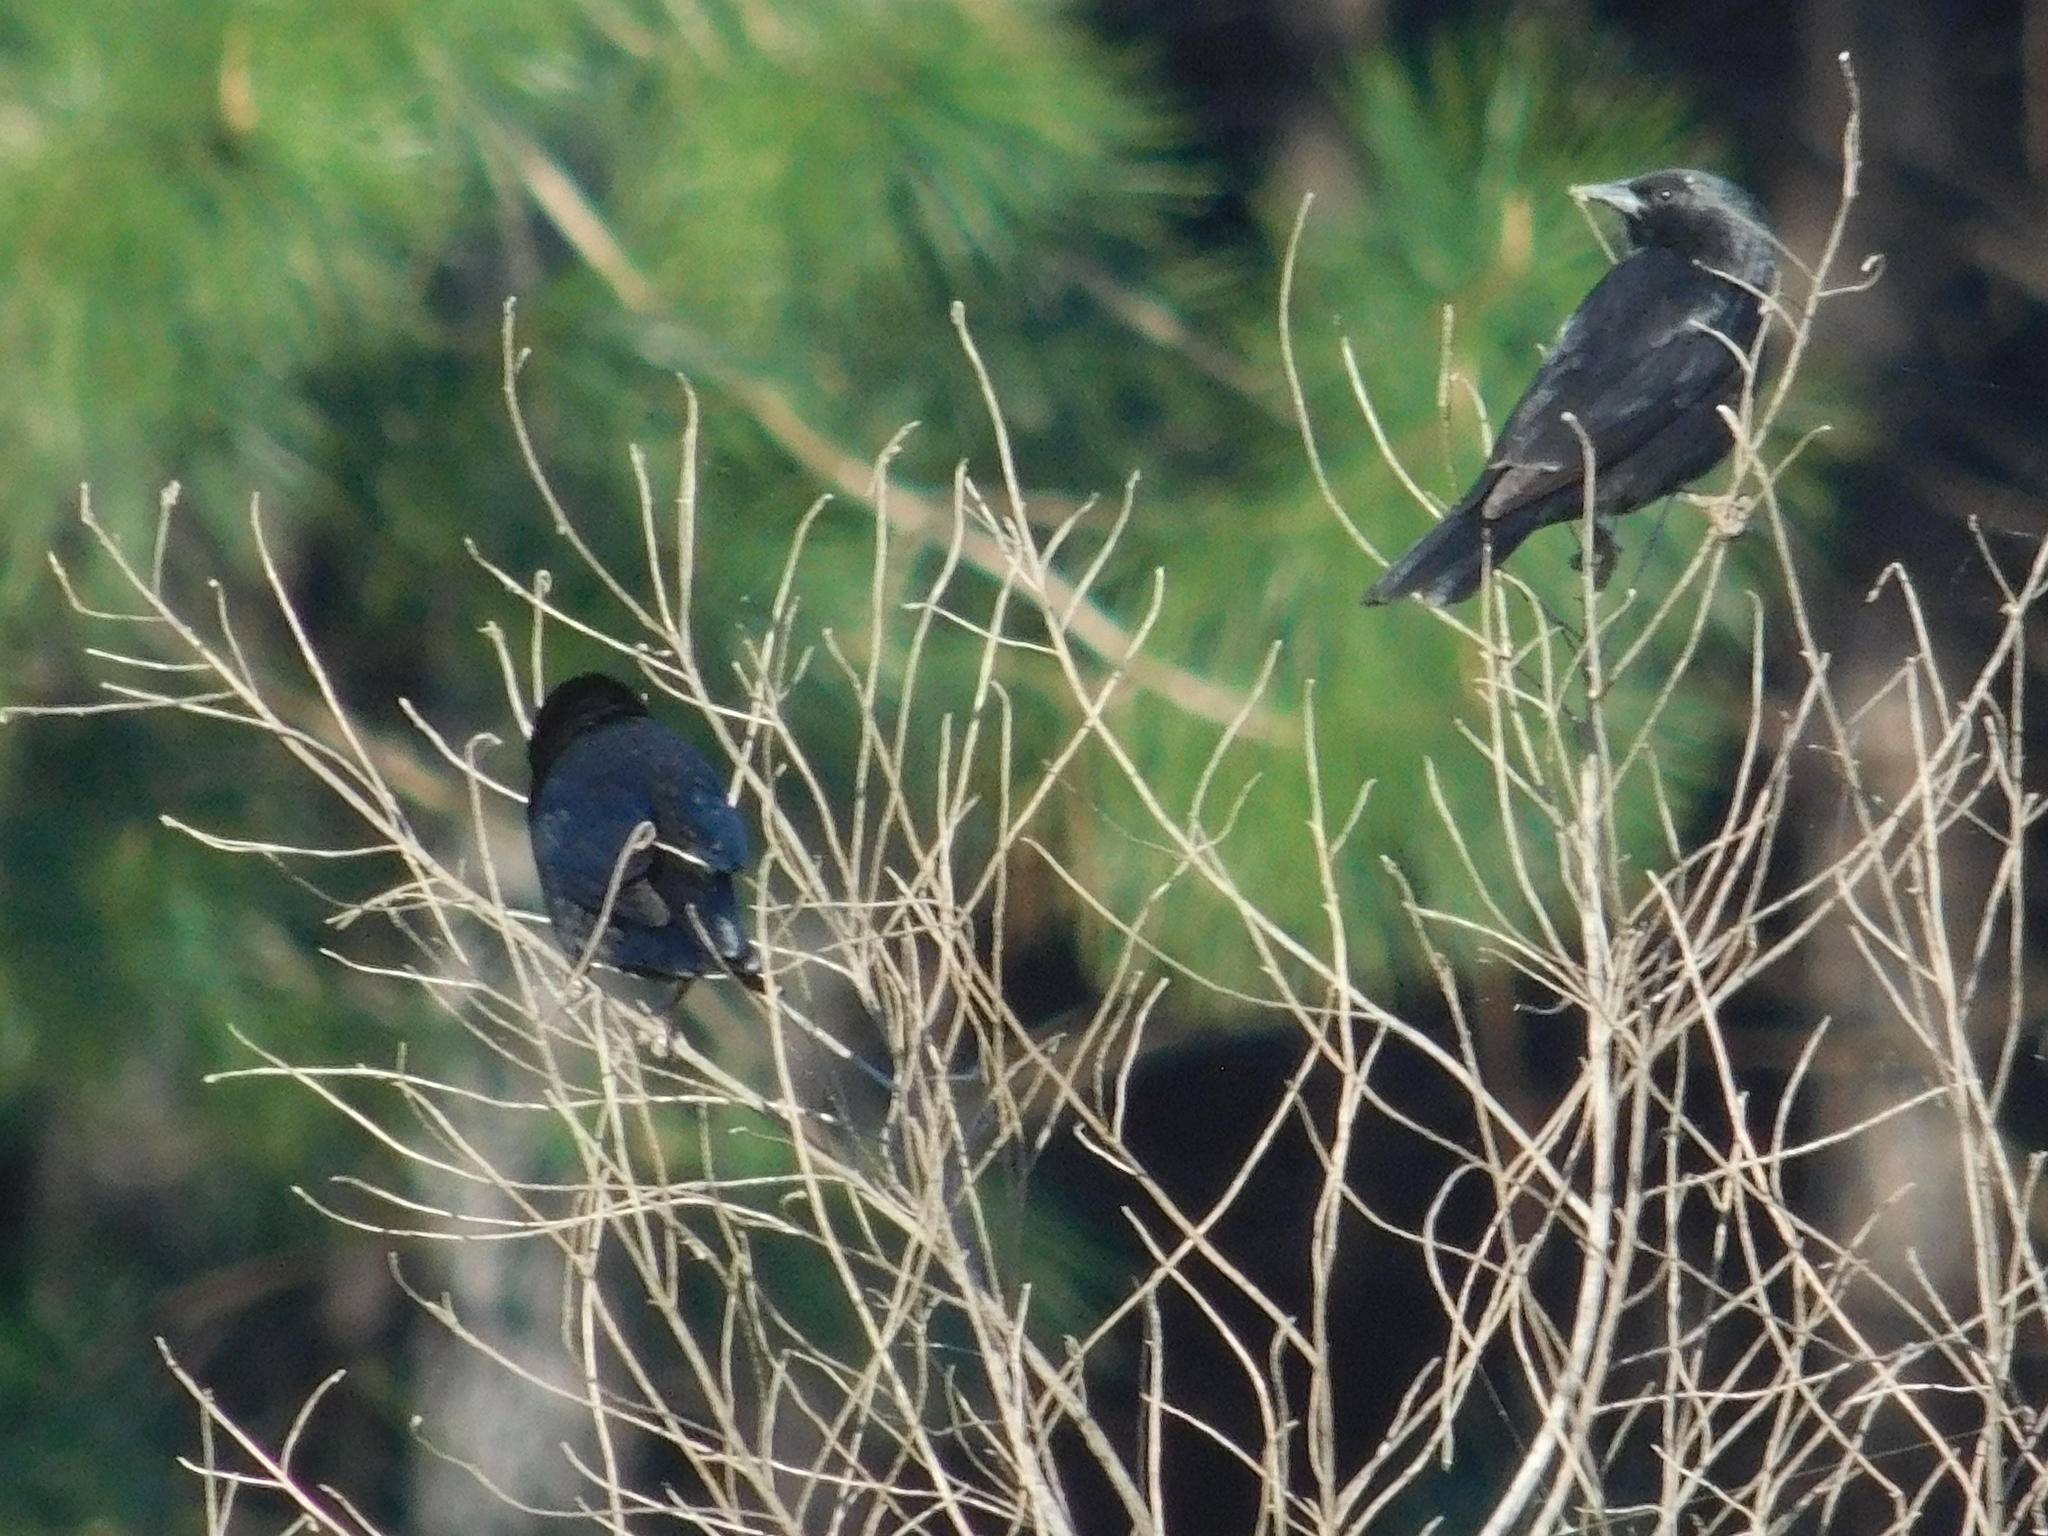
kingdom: Animalia
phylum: Chordata
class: Aves
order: Passeriformes
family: Icteridae
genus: Gnorimopsar
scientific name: Gnorimopsar chopi
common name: Chopi blackbird
